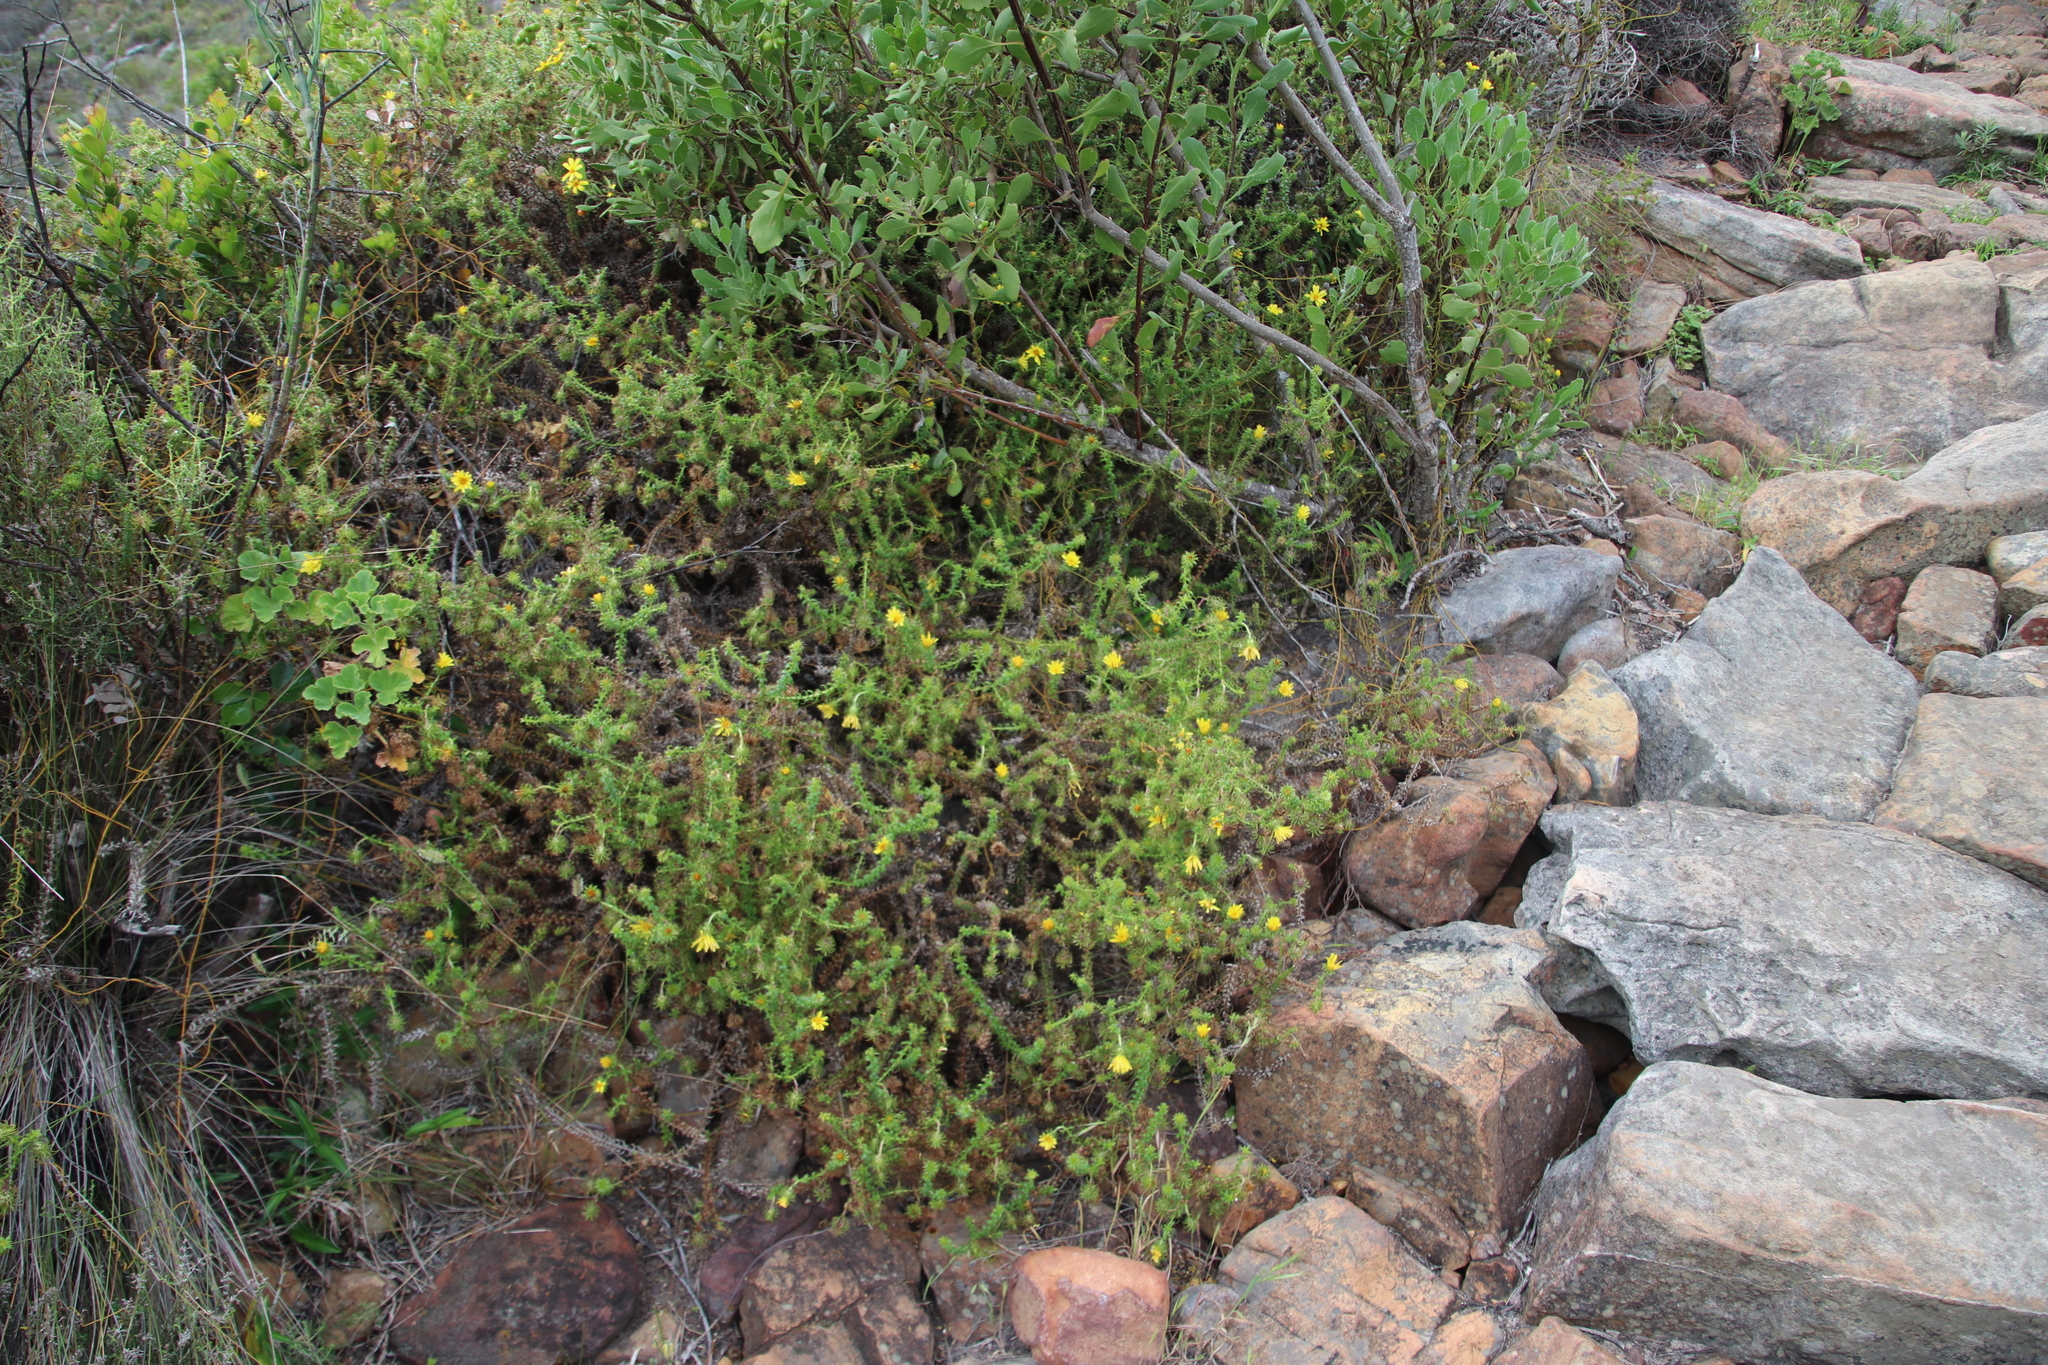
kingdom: Plantae
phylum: Tracheophyta
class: Magnoliopsida
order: Asterales
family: Asteraceae
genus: Cullumia
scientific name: Cullumia setosa
